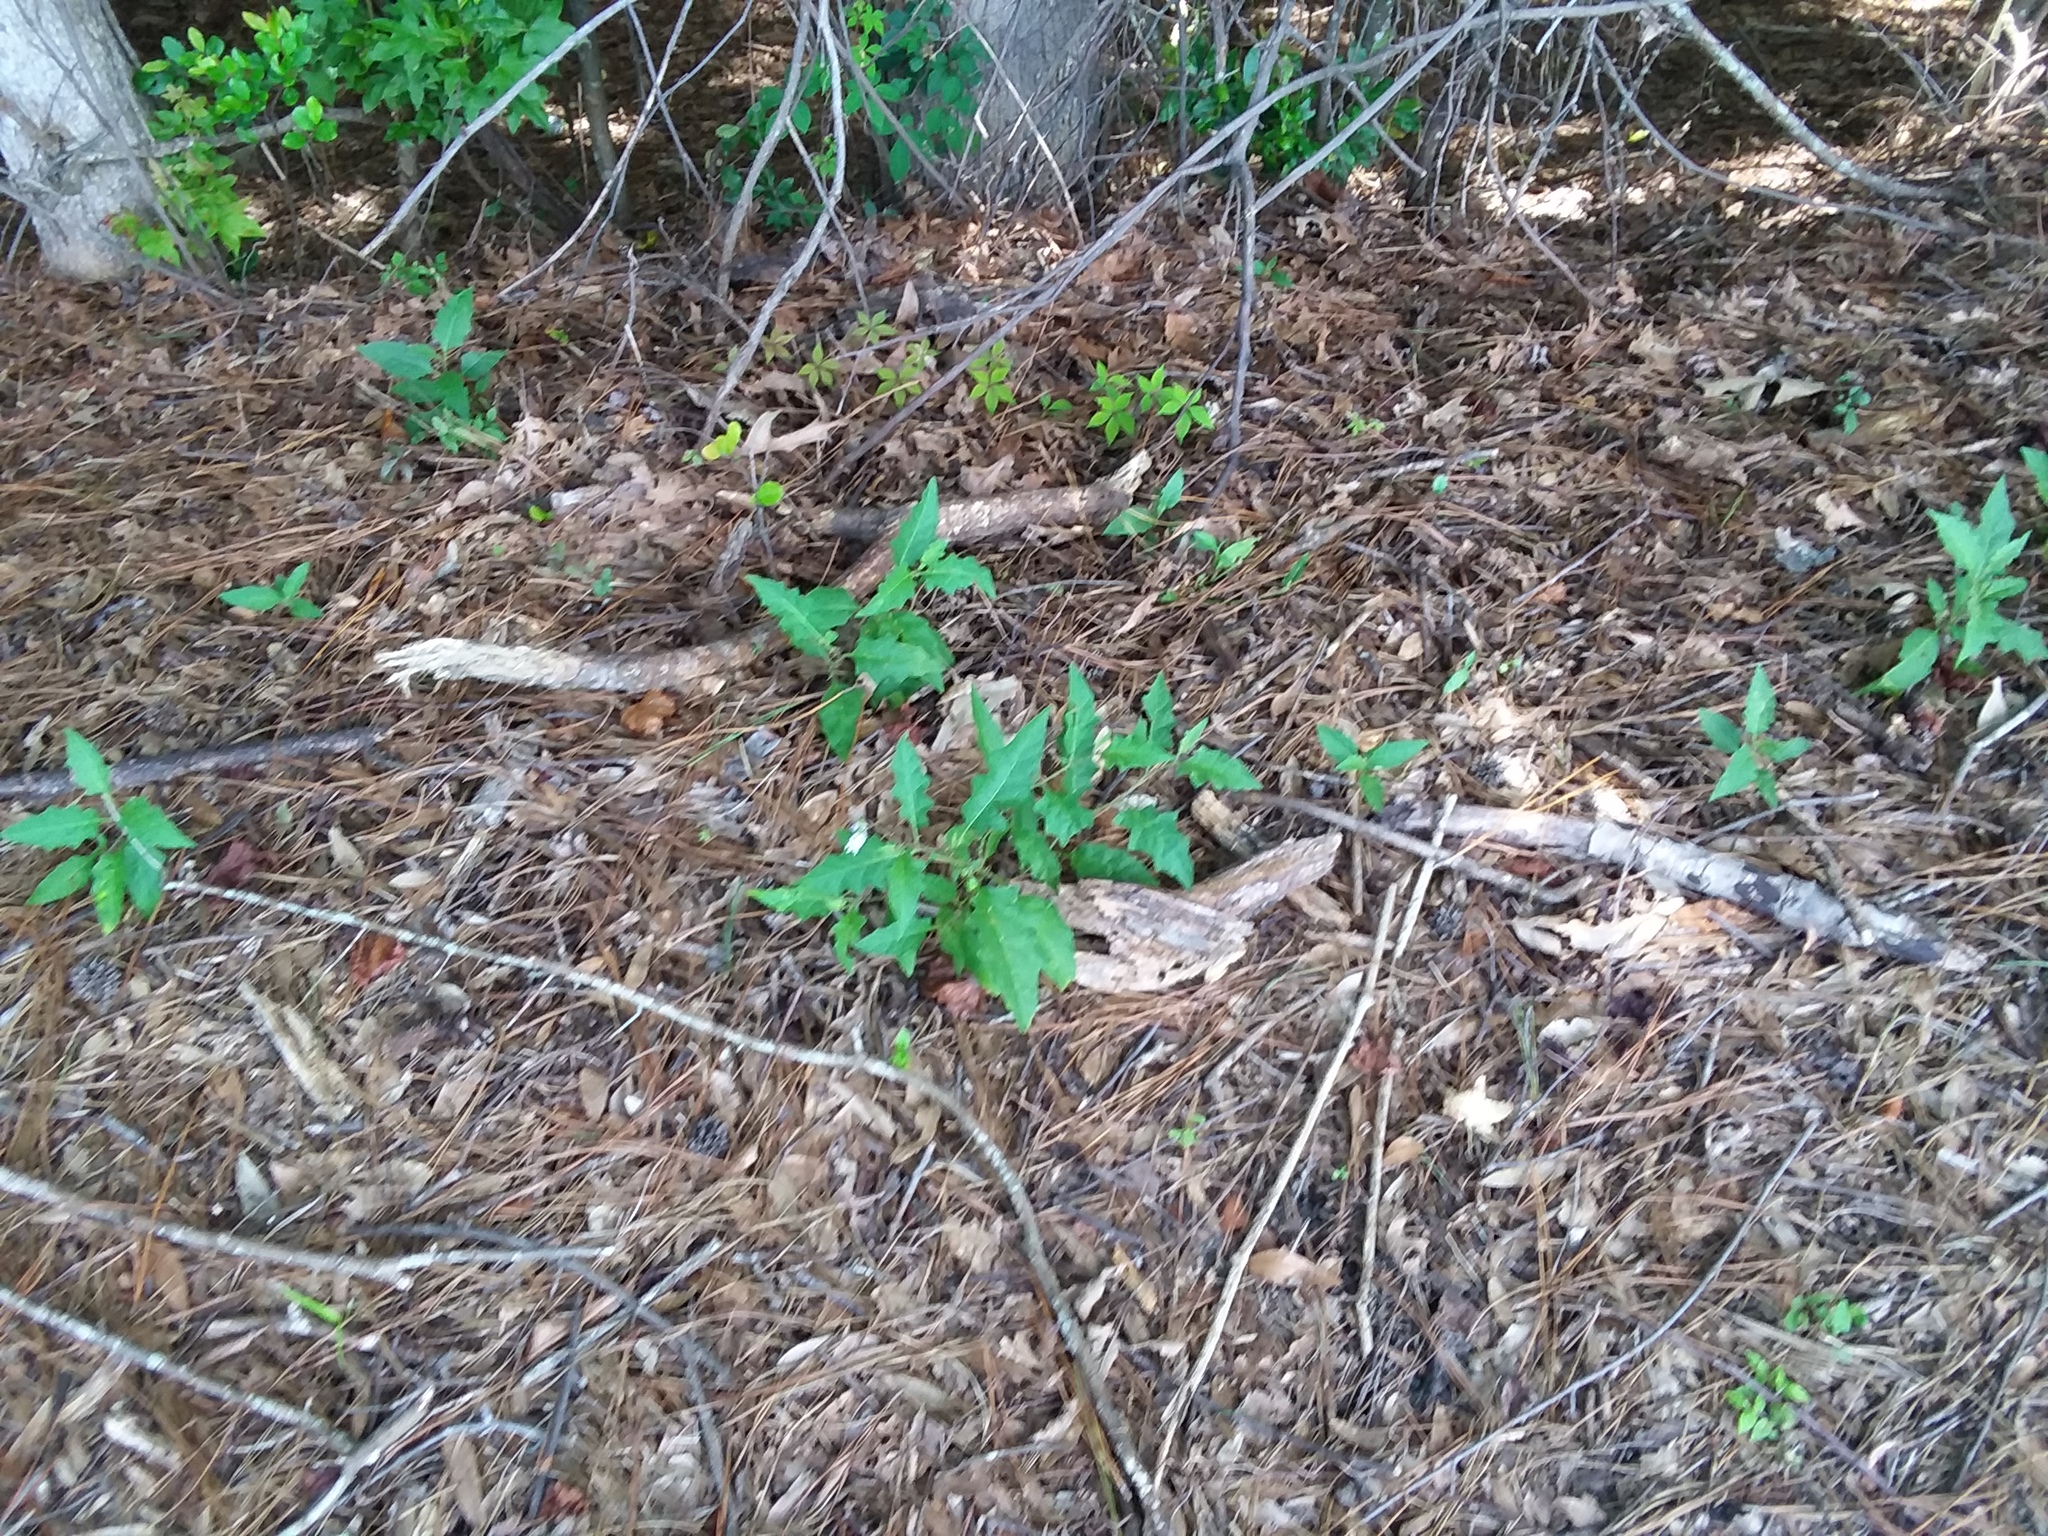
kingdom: Plantae
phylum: Tracheophyta
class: Magnoliopsida
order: Solanales
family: Solanaceae
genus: Solanum
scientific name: Solanum carolinense
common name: Horse-nettle
